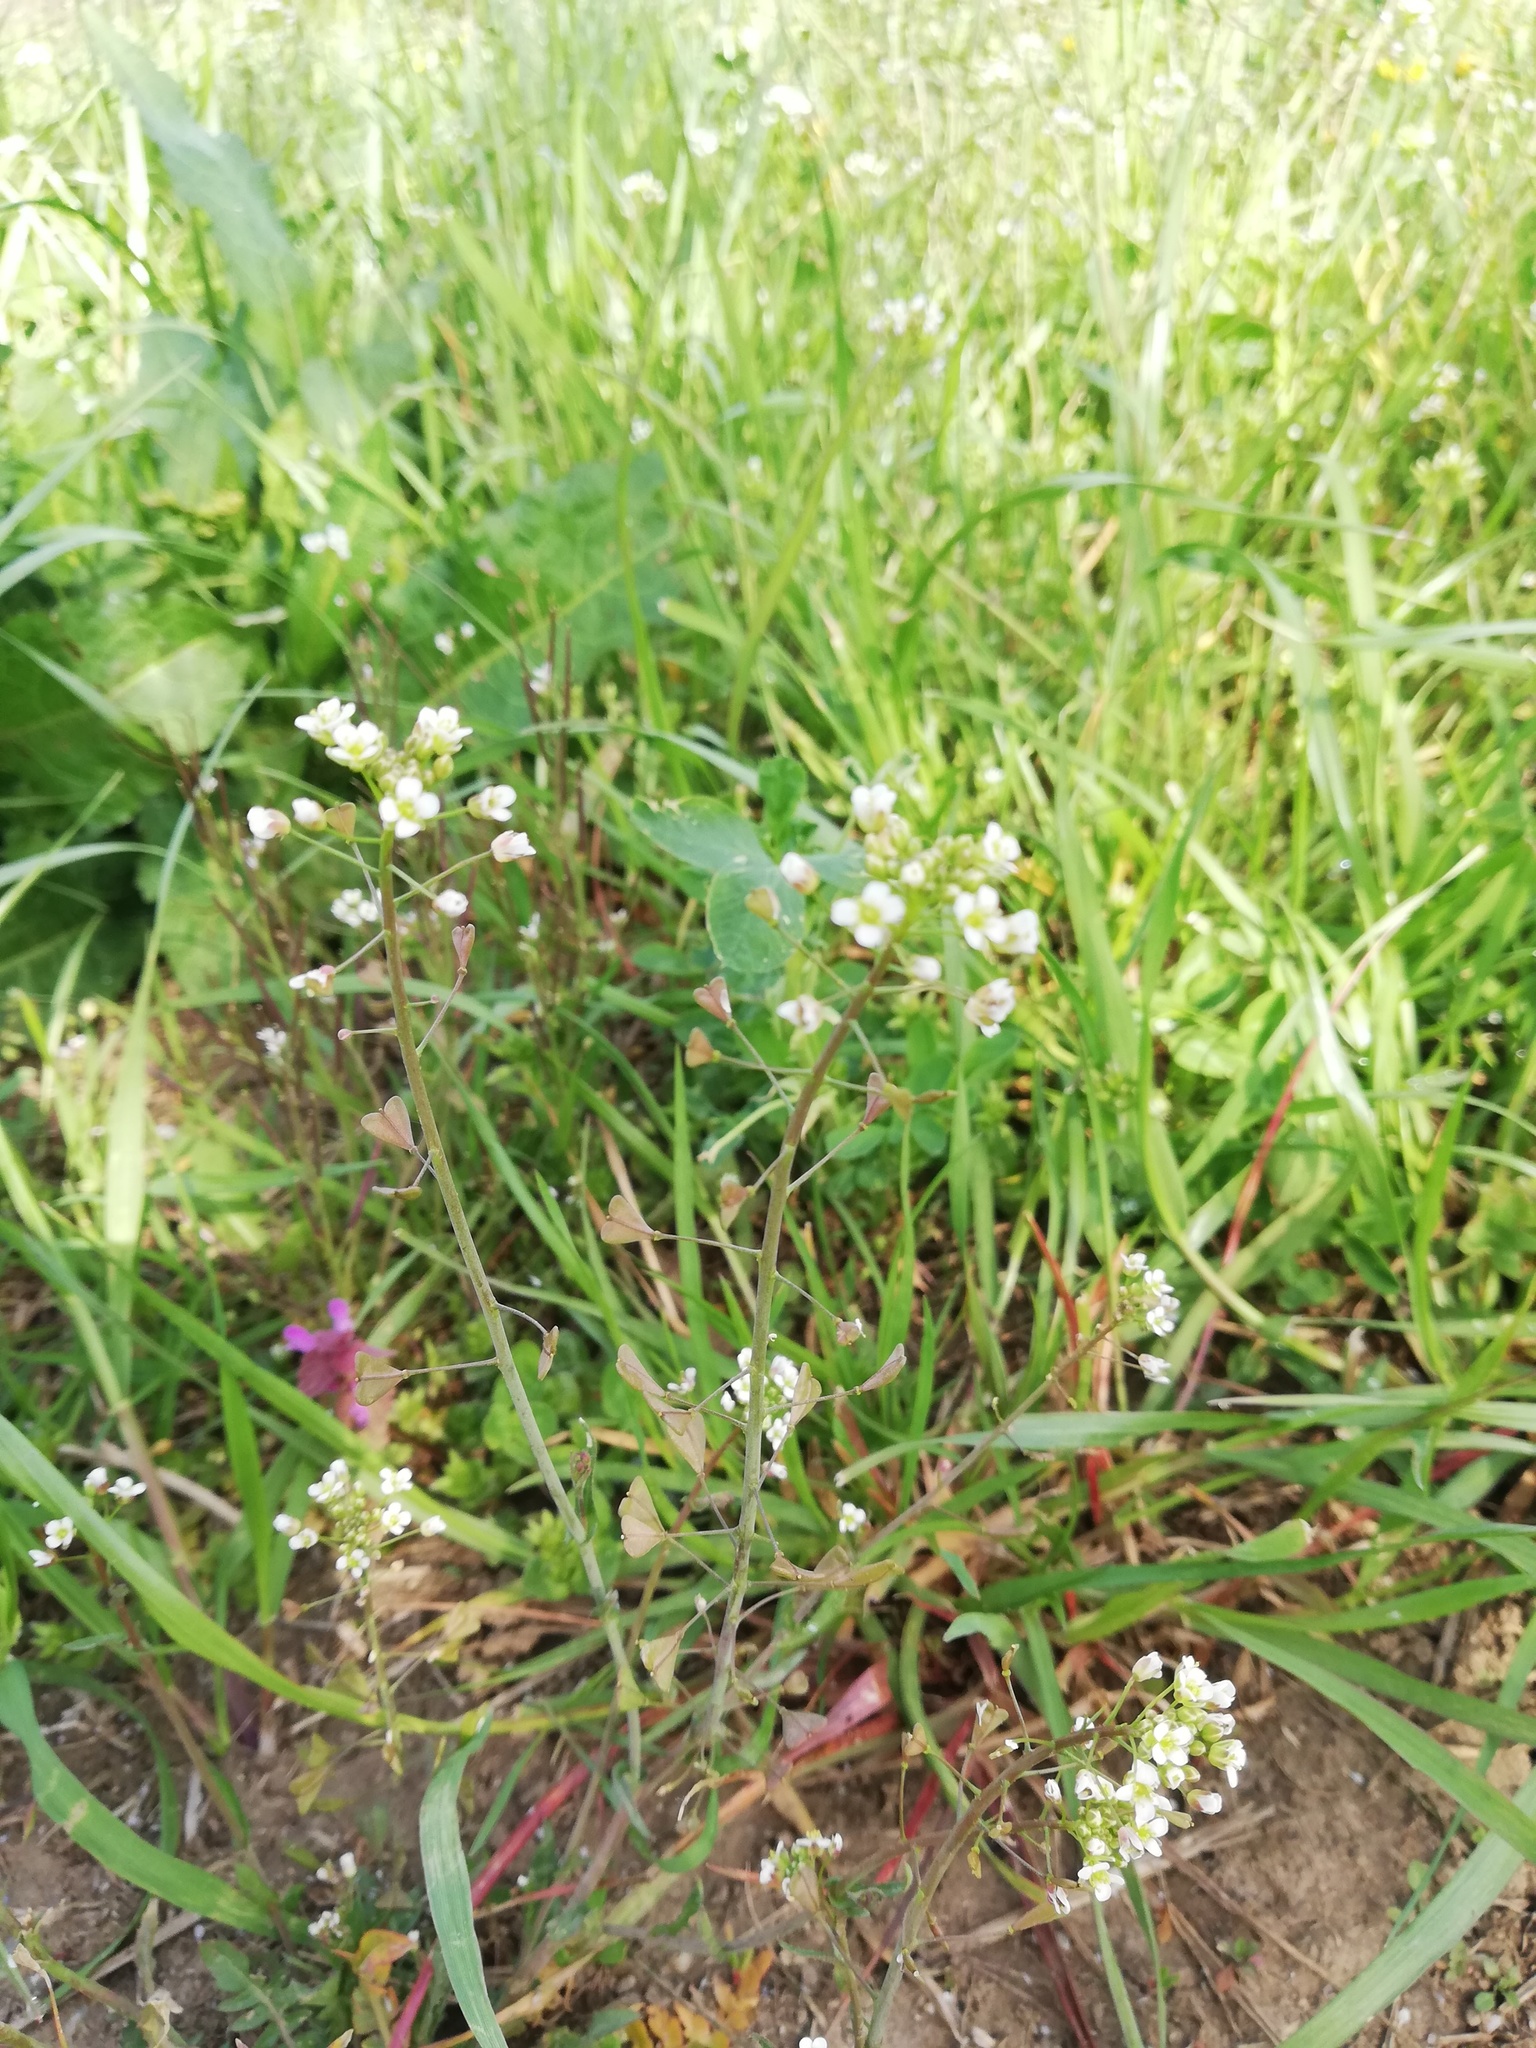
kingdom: Plantae
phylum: Tracheophyta
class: Magnoliopsida
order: Brassicales
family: Brassicaceae
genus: Capsella
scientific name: Capsella bursa-pastoris
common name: Shepherd's purse
